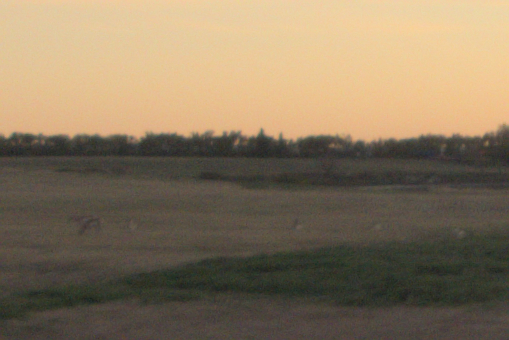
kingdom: Animalia
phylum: Chordata
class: Mammalia
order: Artiodactyla
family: Antilocapridae
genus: Antilocapra
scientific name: Antilocapra americana
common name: Pronghorn
